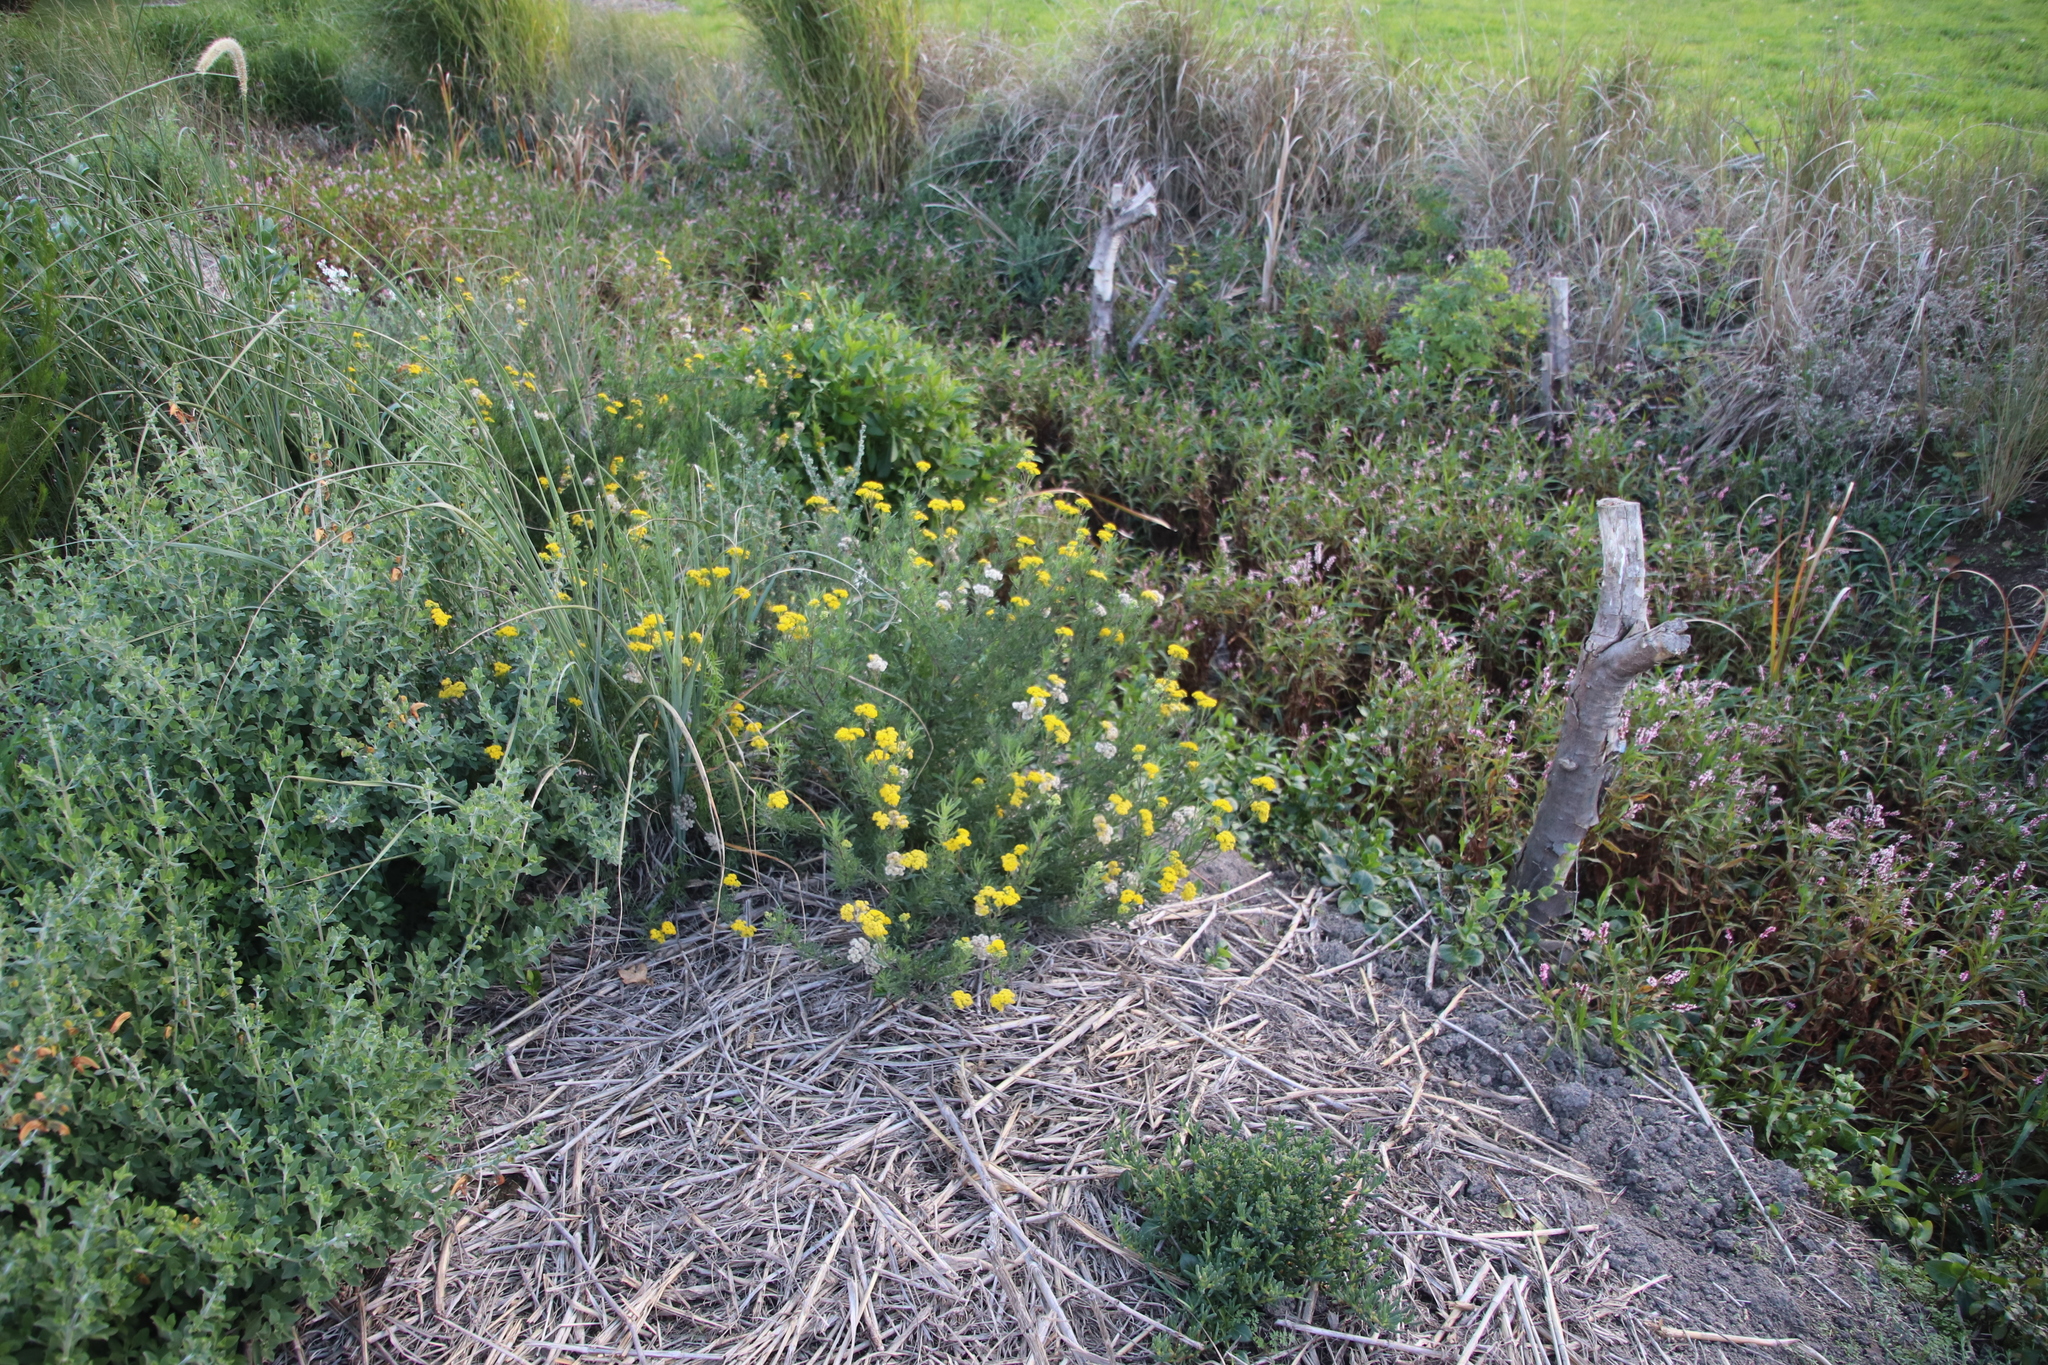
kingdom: Plantae
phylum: Tracheophyta
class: Magnoliopsida
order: Asterales
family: Asteraceae
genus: Nidorella
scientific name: Nidorella foetida
